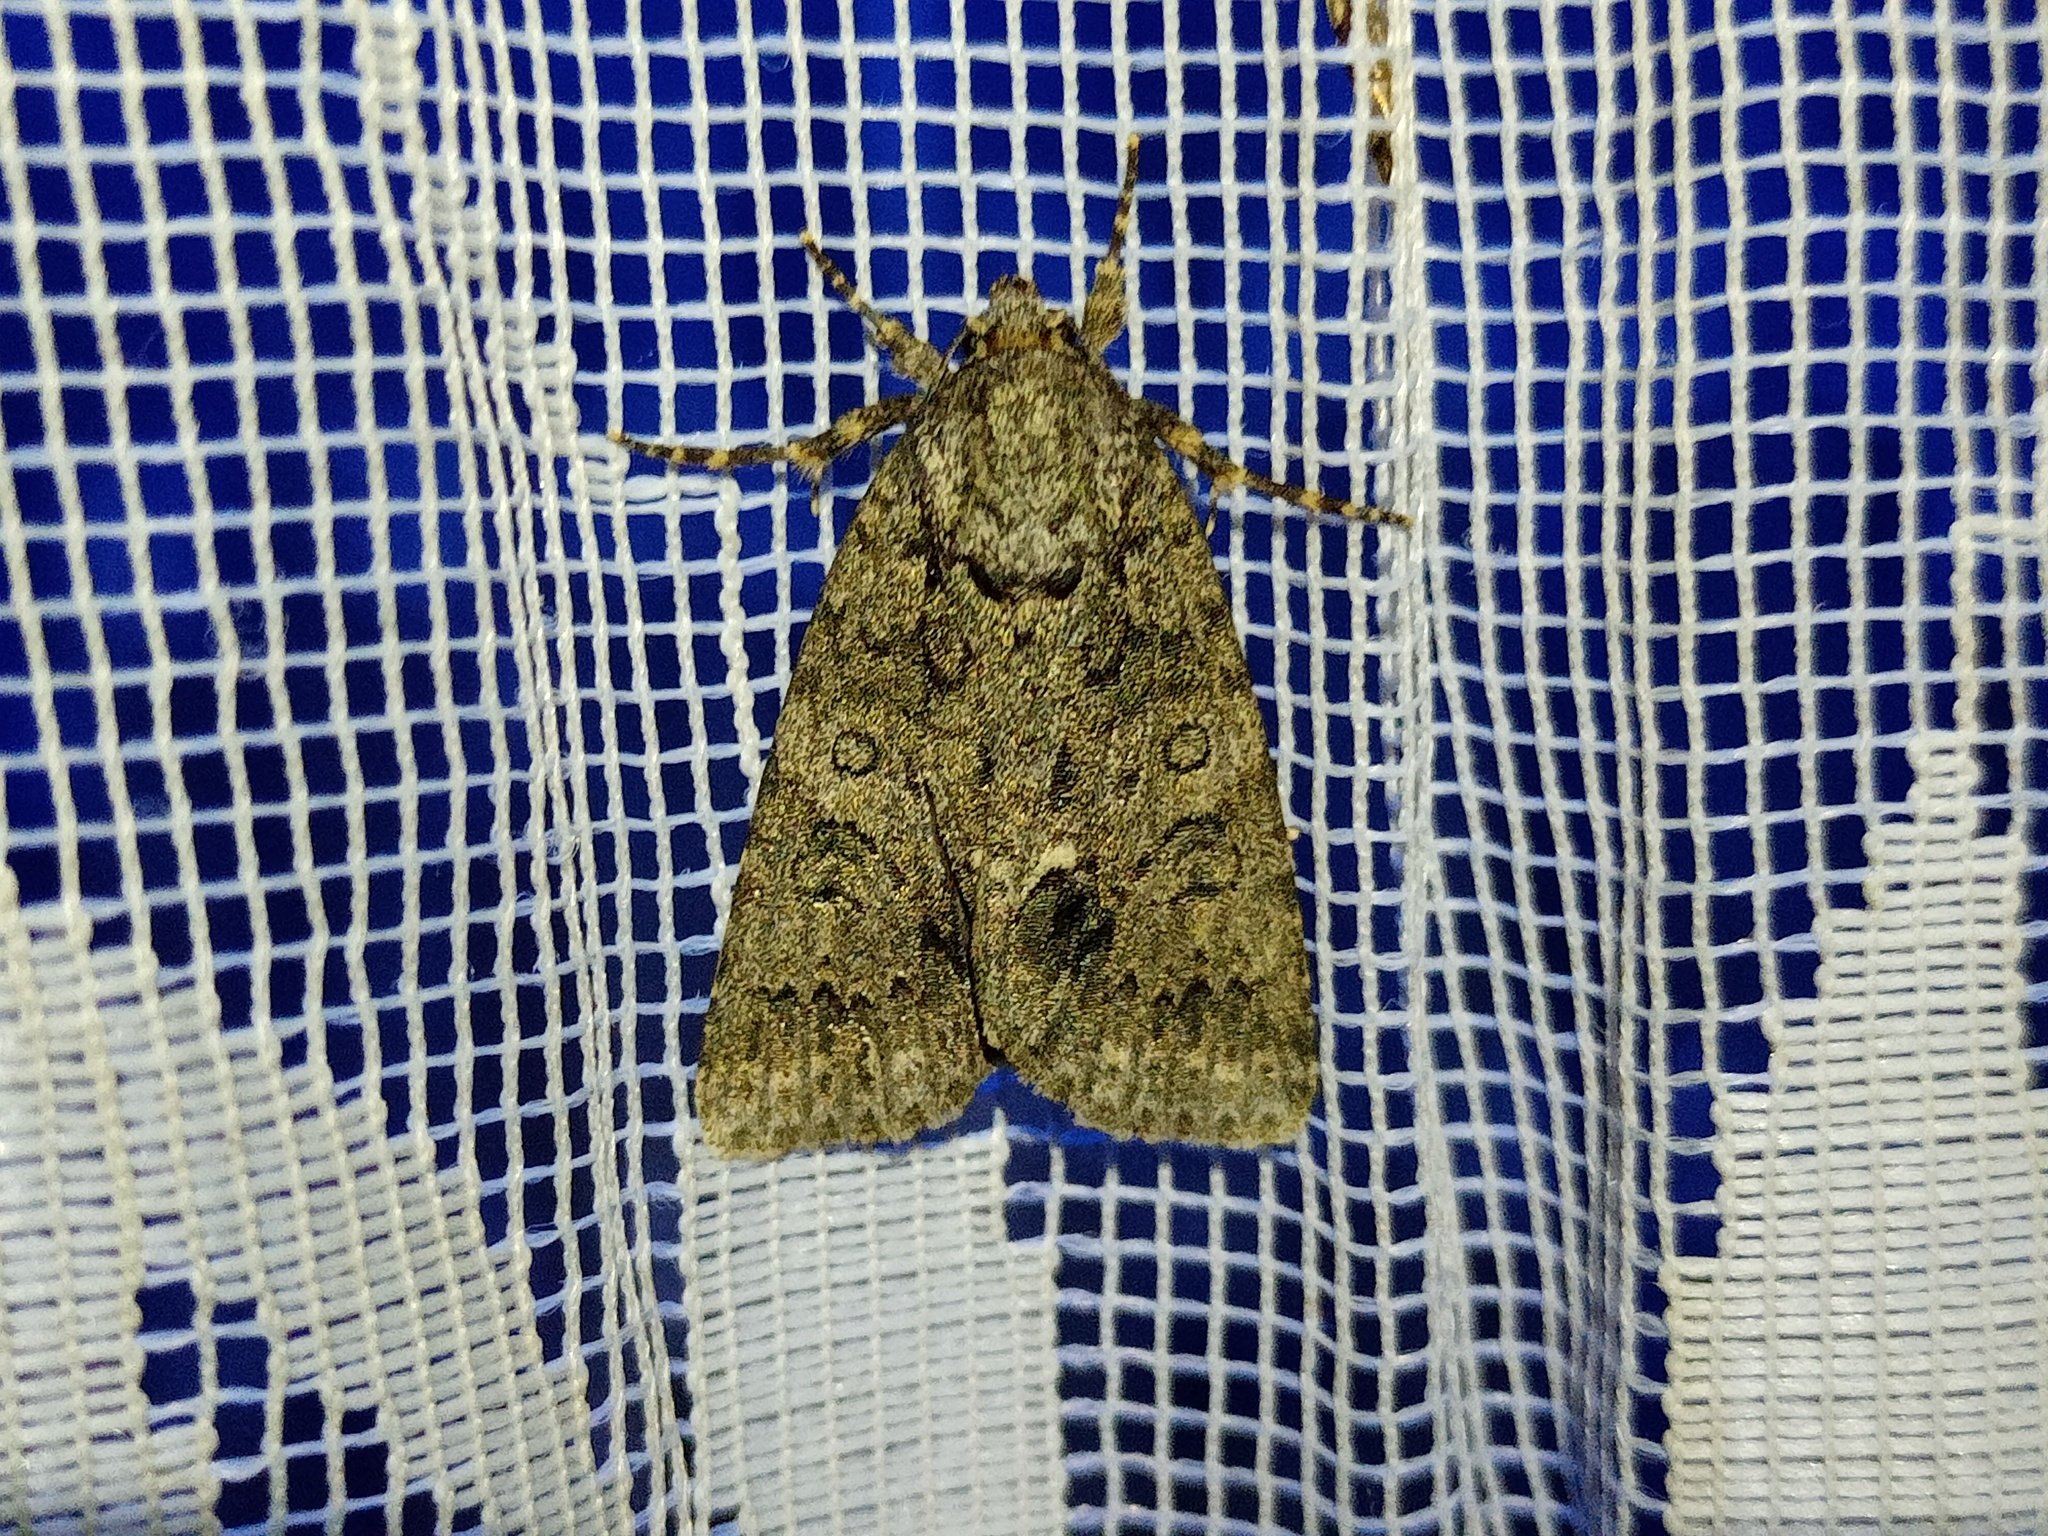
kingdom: Animalia
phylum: Arthropoda
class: Insecta
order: Lepidoptera
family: Noctuidae
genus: Acronicta
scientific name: Acronicta rumicis
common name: Knot grass
